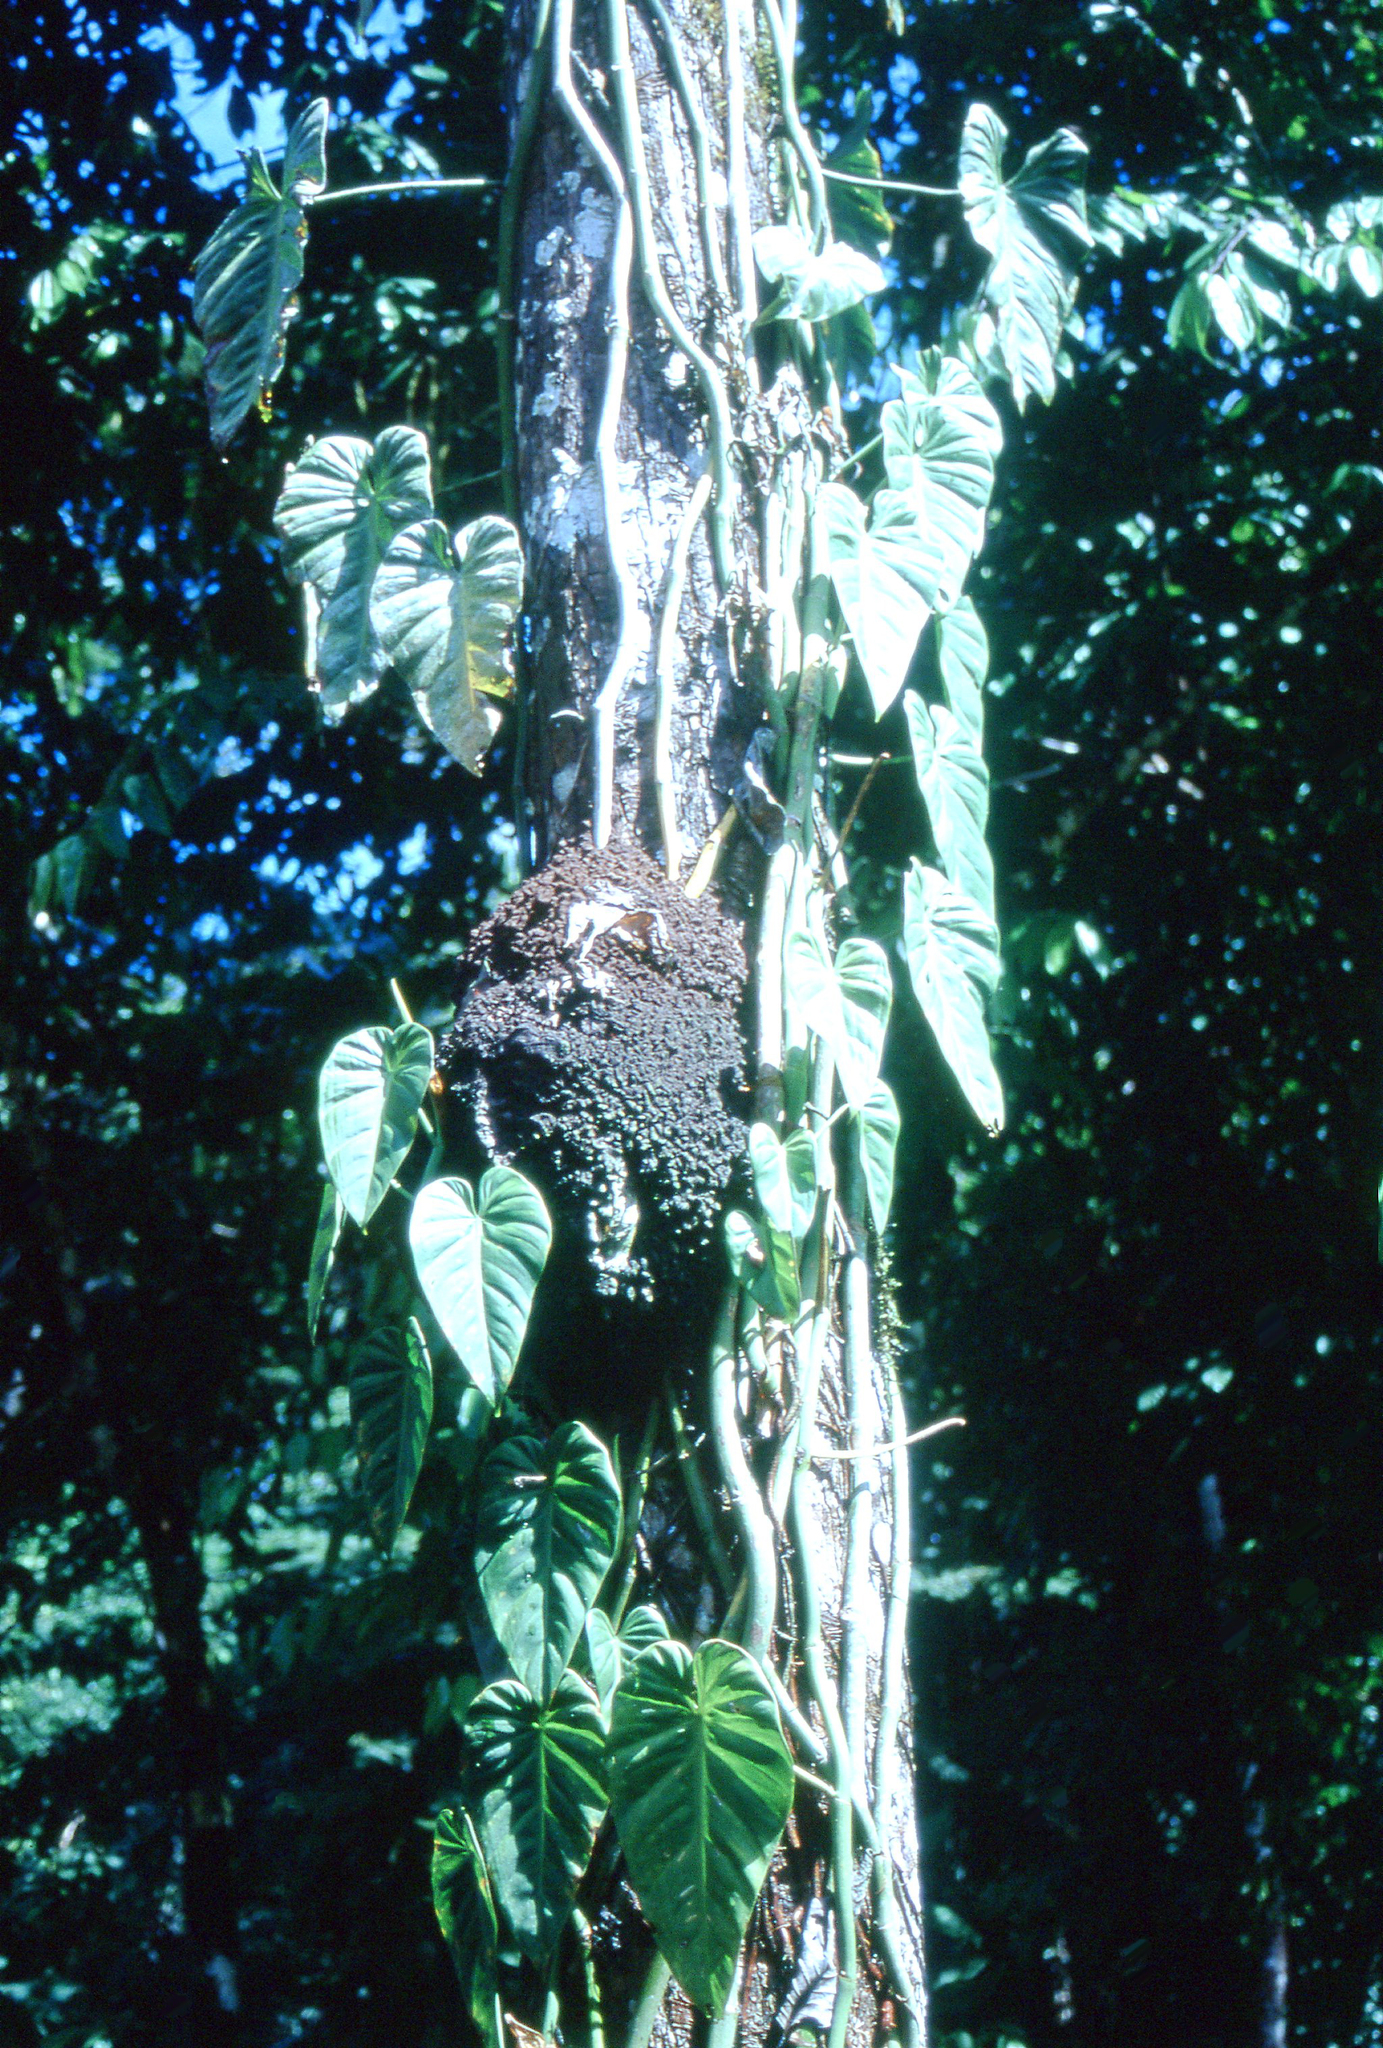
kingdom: Plantae
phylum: Tracheophyta
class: Liliopsida
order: Alismatales
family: Araceae
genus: Philodendron
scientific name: Philodendron hederaceum
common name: Vilevine
